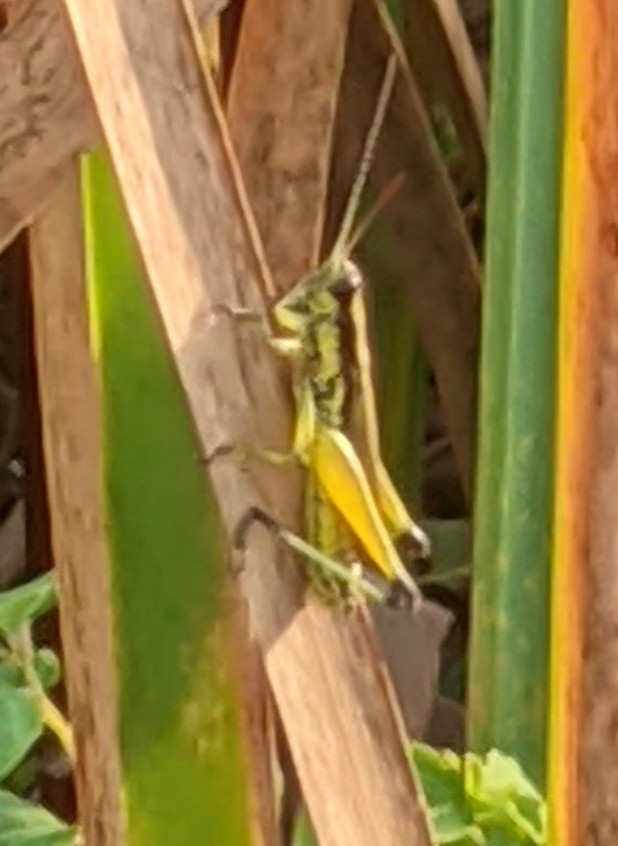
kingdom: Animalia
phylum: Arthropoda
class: Insecta
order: Orthoptera
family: Acrididae
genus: Paroxya
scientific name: Paroxya clavuligera
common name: Olive-green swamp grasshopper
